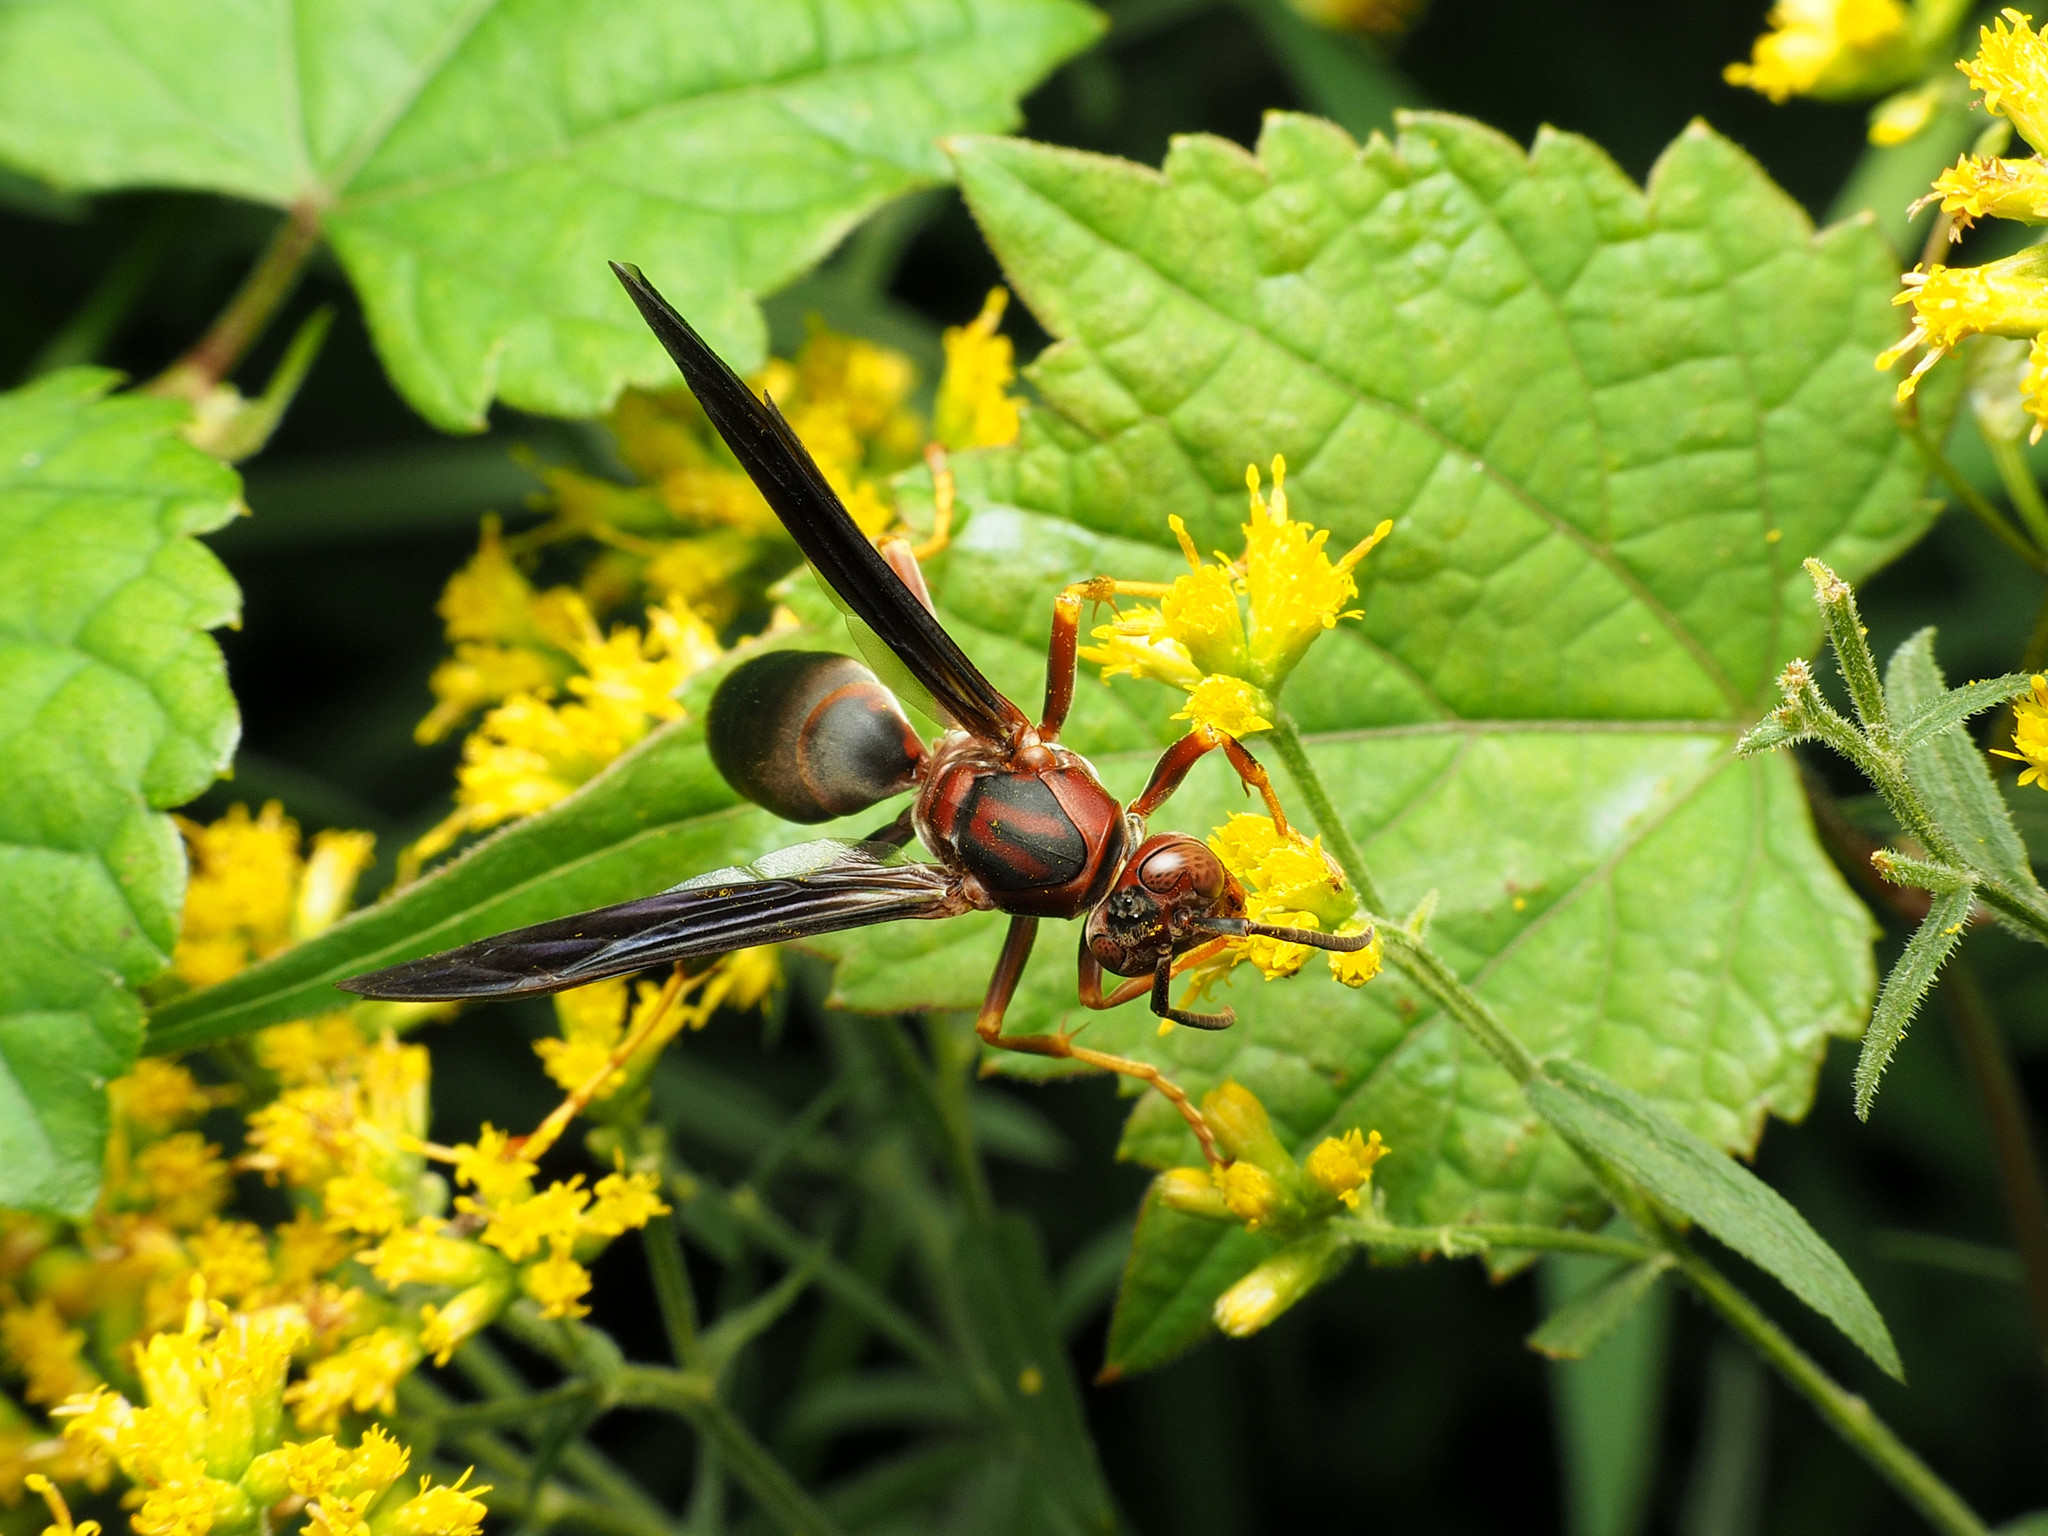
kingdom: Animalia
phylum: Arthropoda
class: Insecta
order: Hymenoptera
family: Eumenidae
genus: Polistes
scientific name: Polistes metricus
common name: Metric paper wasp
